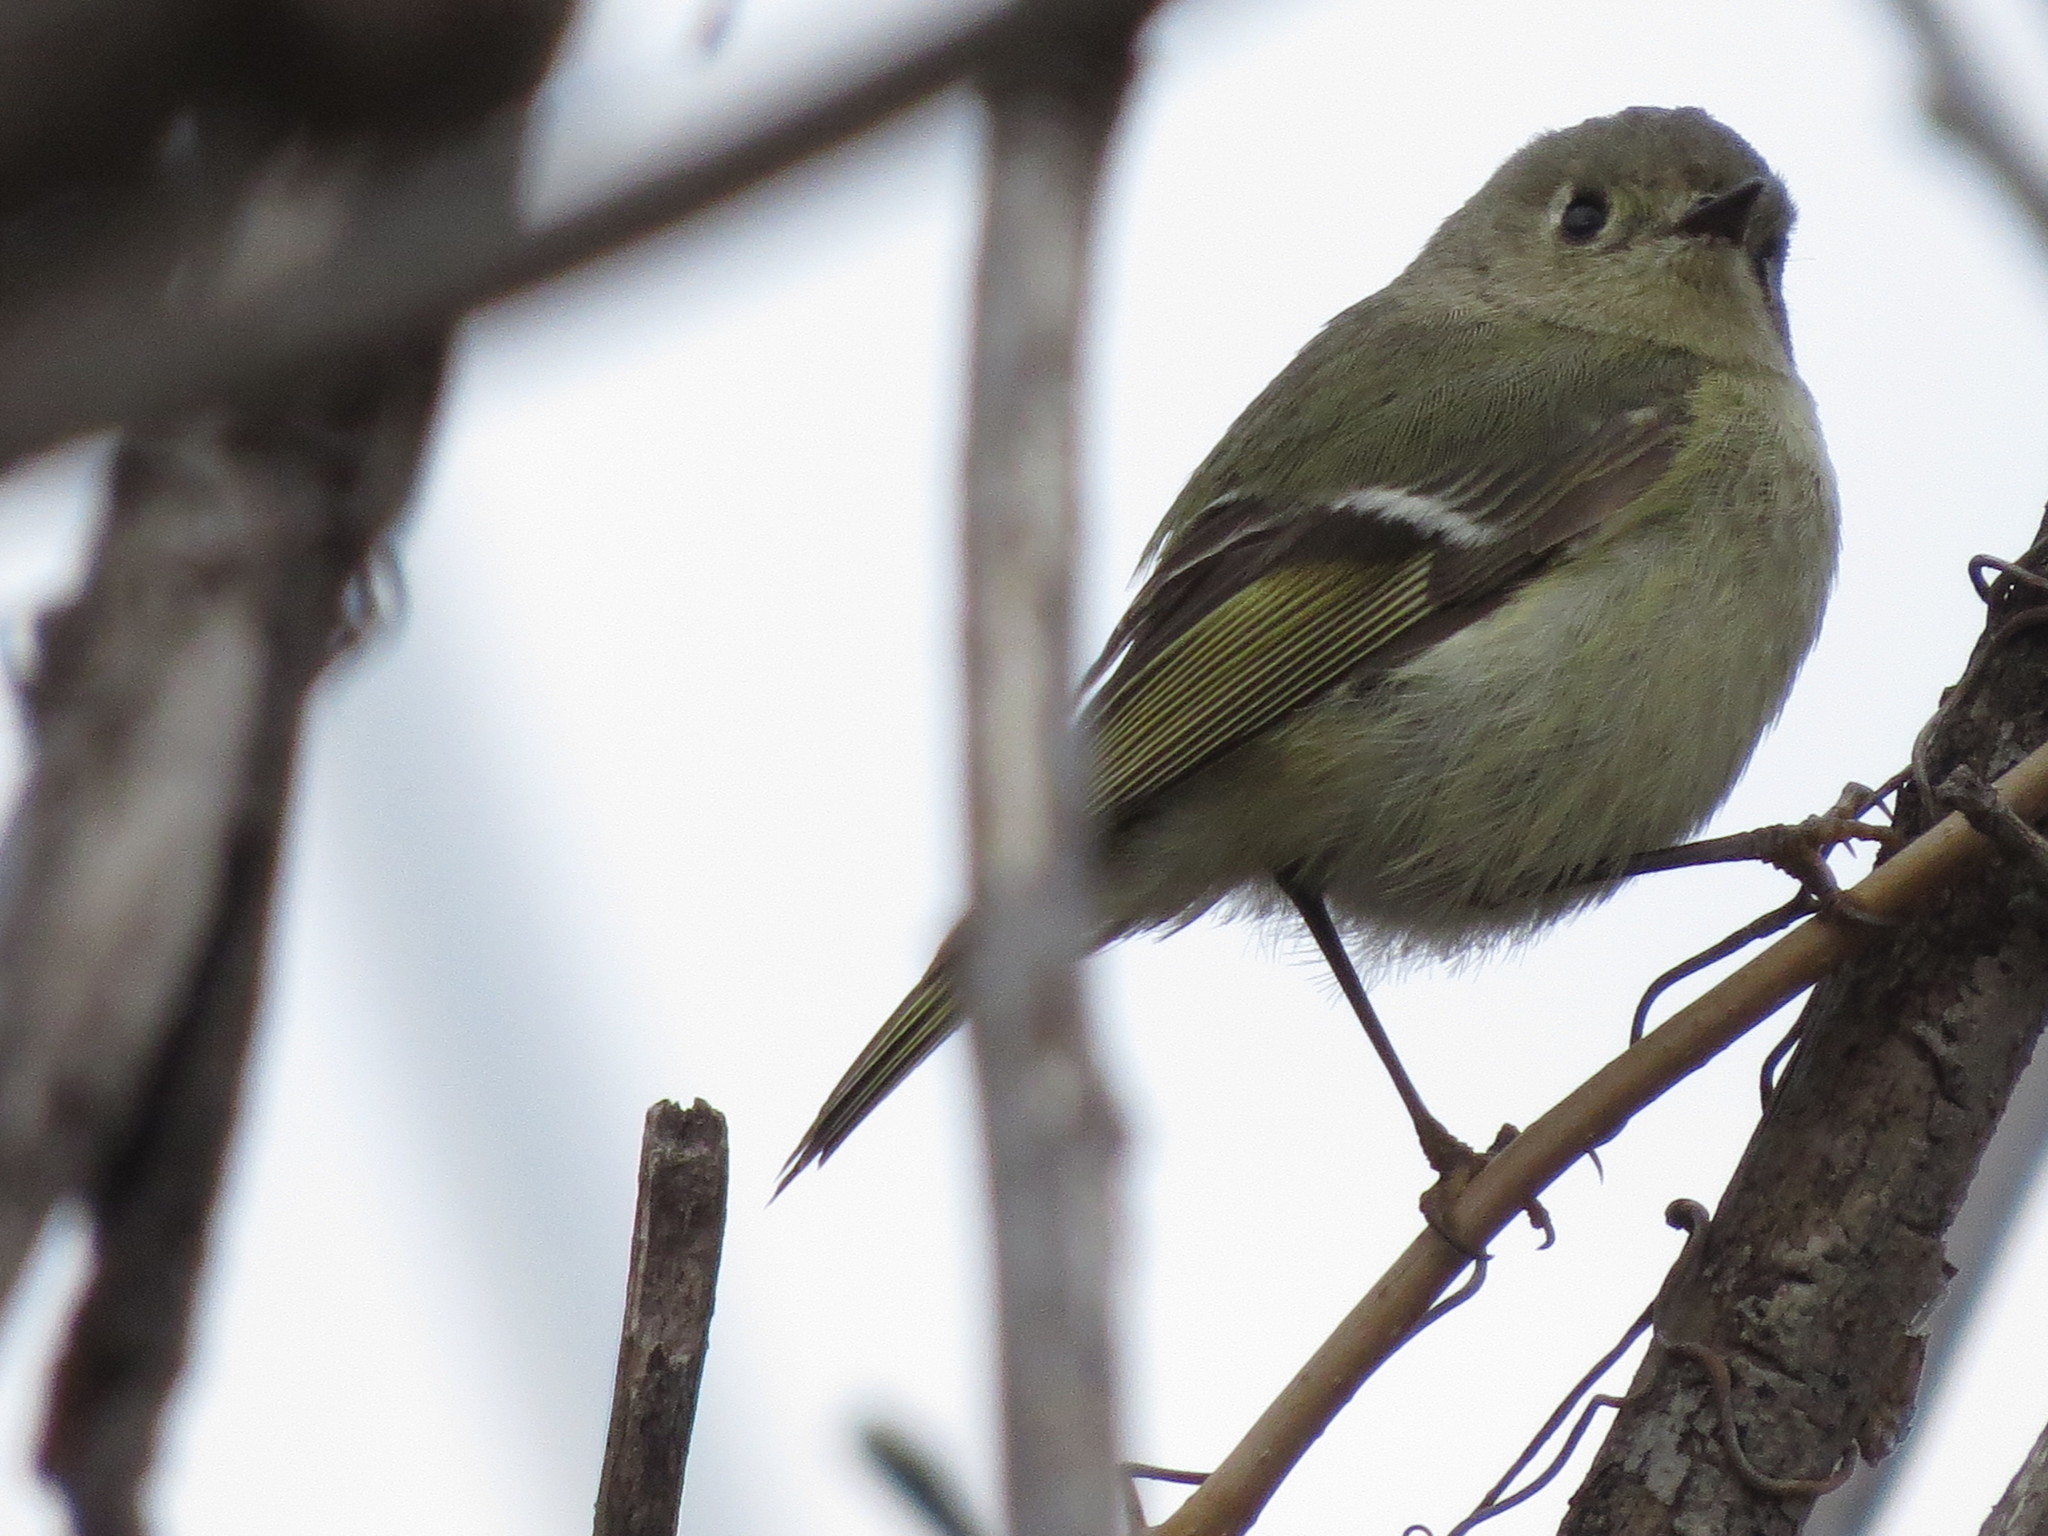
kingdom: Animalia
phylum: Chordata
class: Aves
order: Passeriformes
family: Regulidae
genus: Regulus
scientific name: Regulus calendula
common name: Ruby-crowned kinglet
